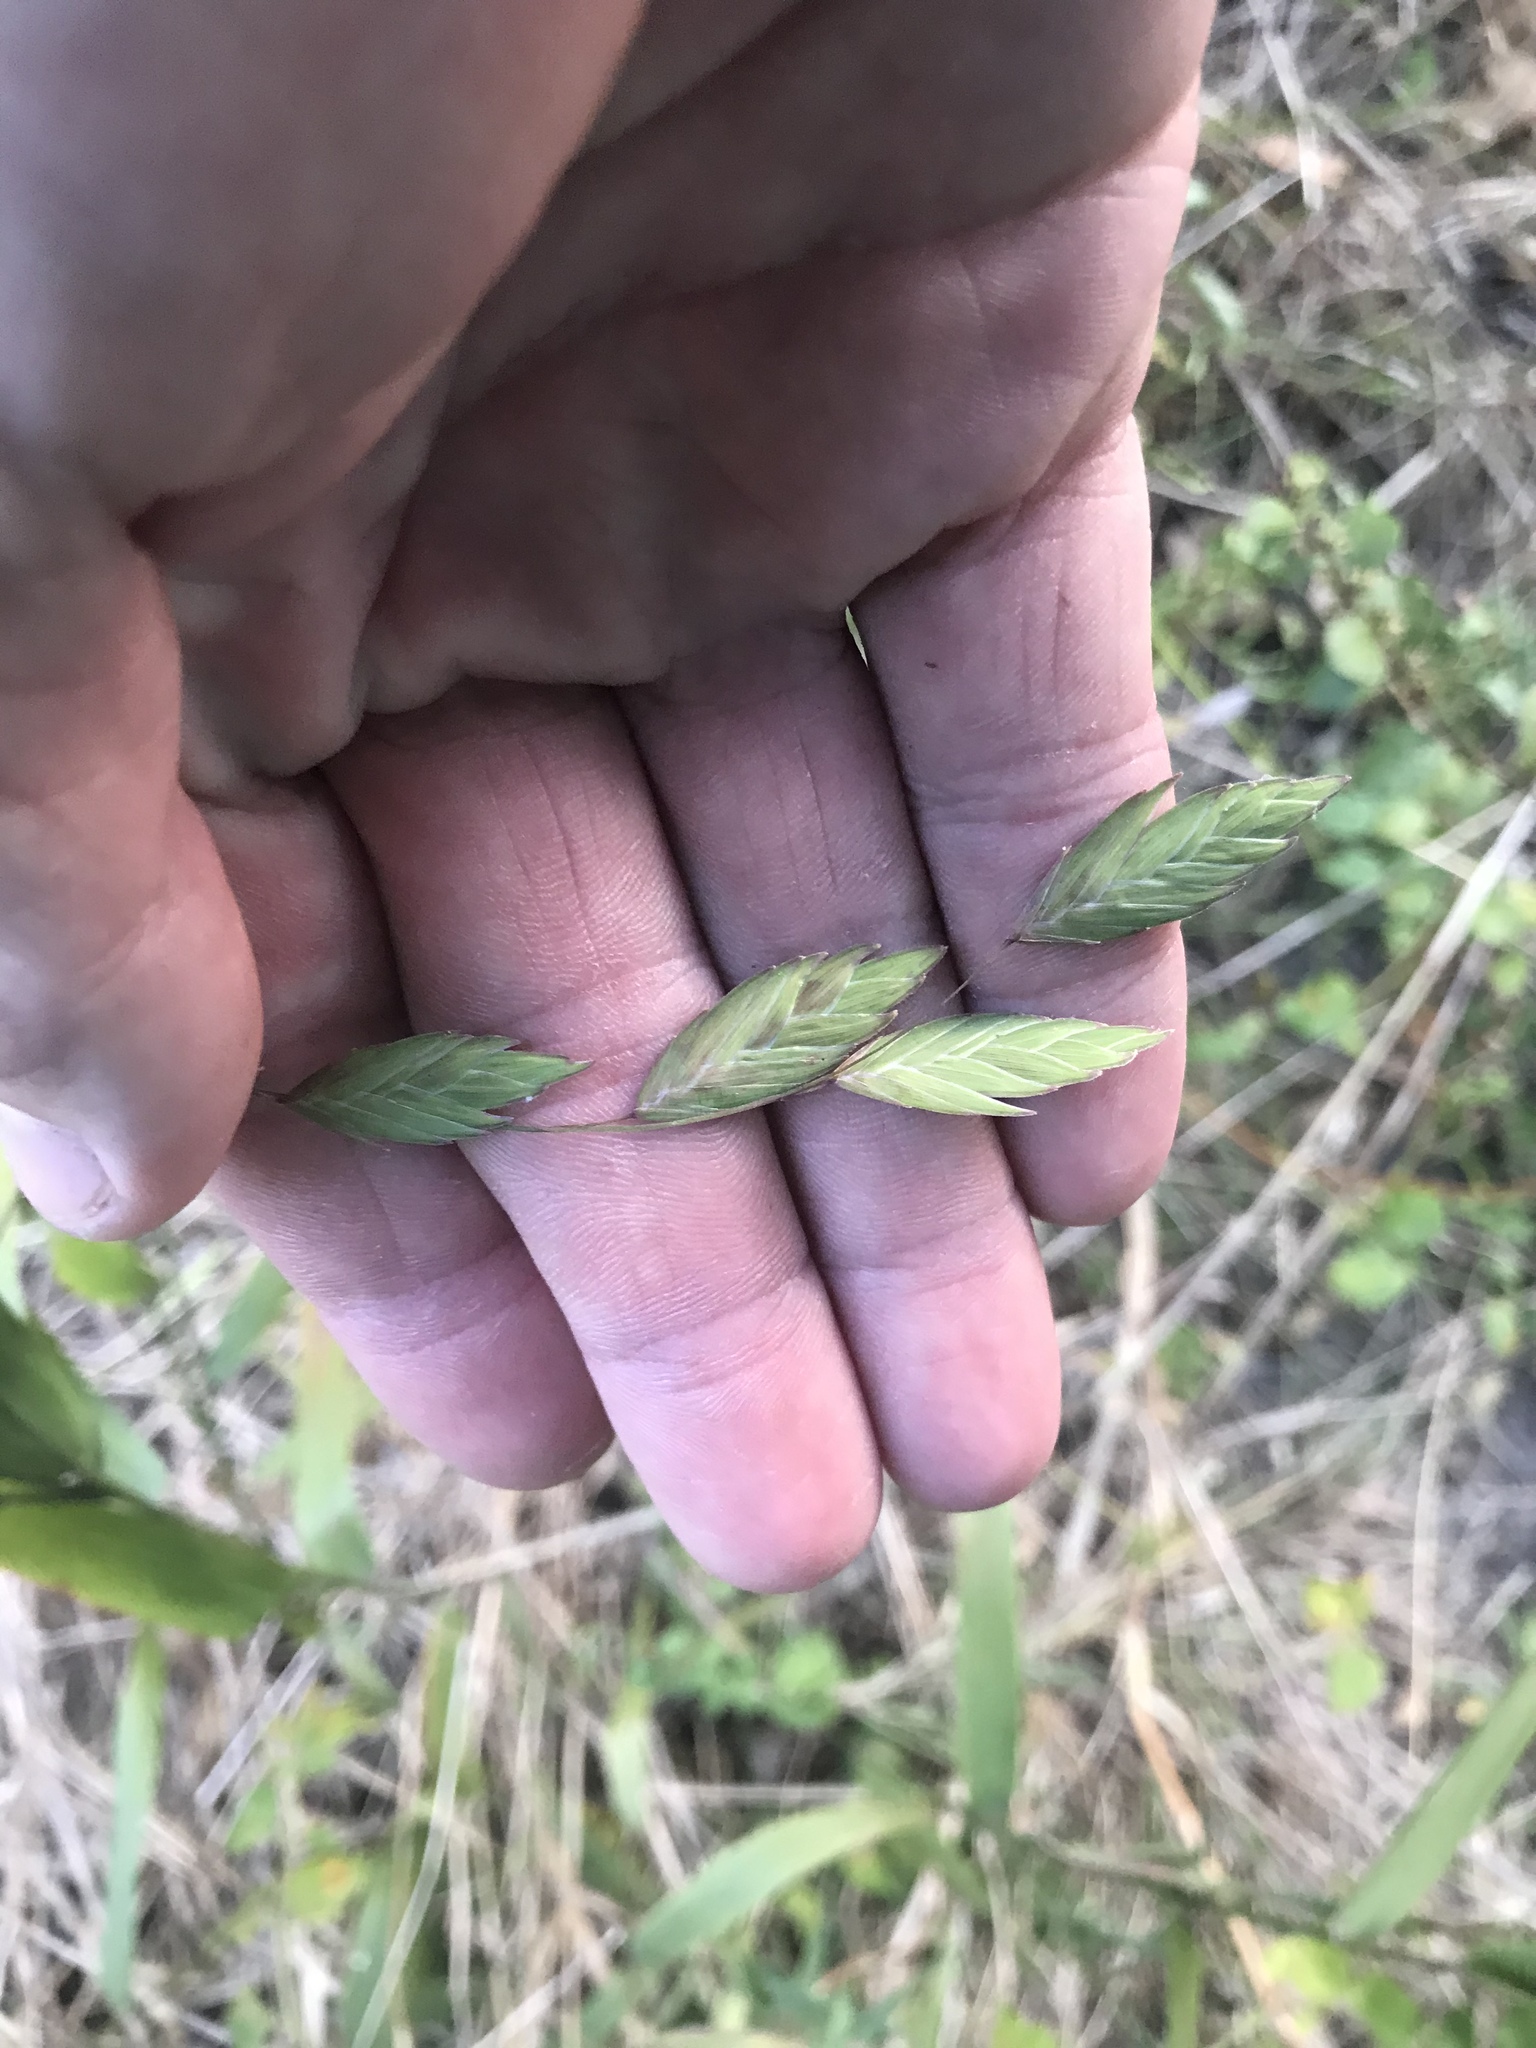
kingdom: Plantae
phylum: Tracheophyta
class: Liliopsida
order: Poales
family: Poaceae
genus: Chasmanthium
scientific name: Chasmanthium latifolium
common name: Broad-leaved chasmanthium
